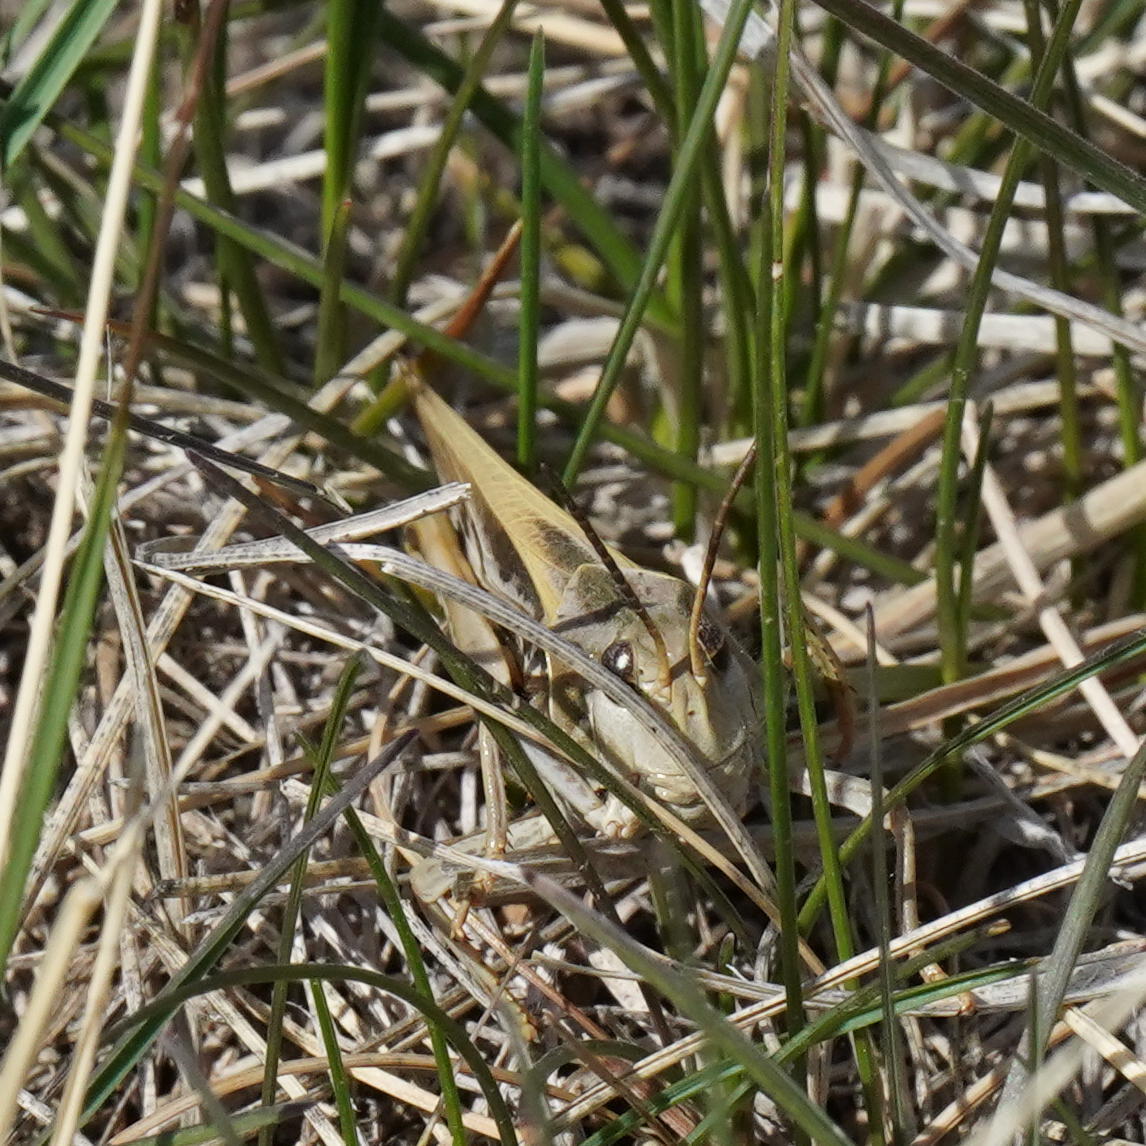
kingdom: Animalia
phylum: Arthropoda
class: Insecta
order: Orthoptera
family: Acrididae
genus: Pardalophora
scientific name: Pardalophora apiculata
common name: Coral-winged locust
